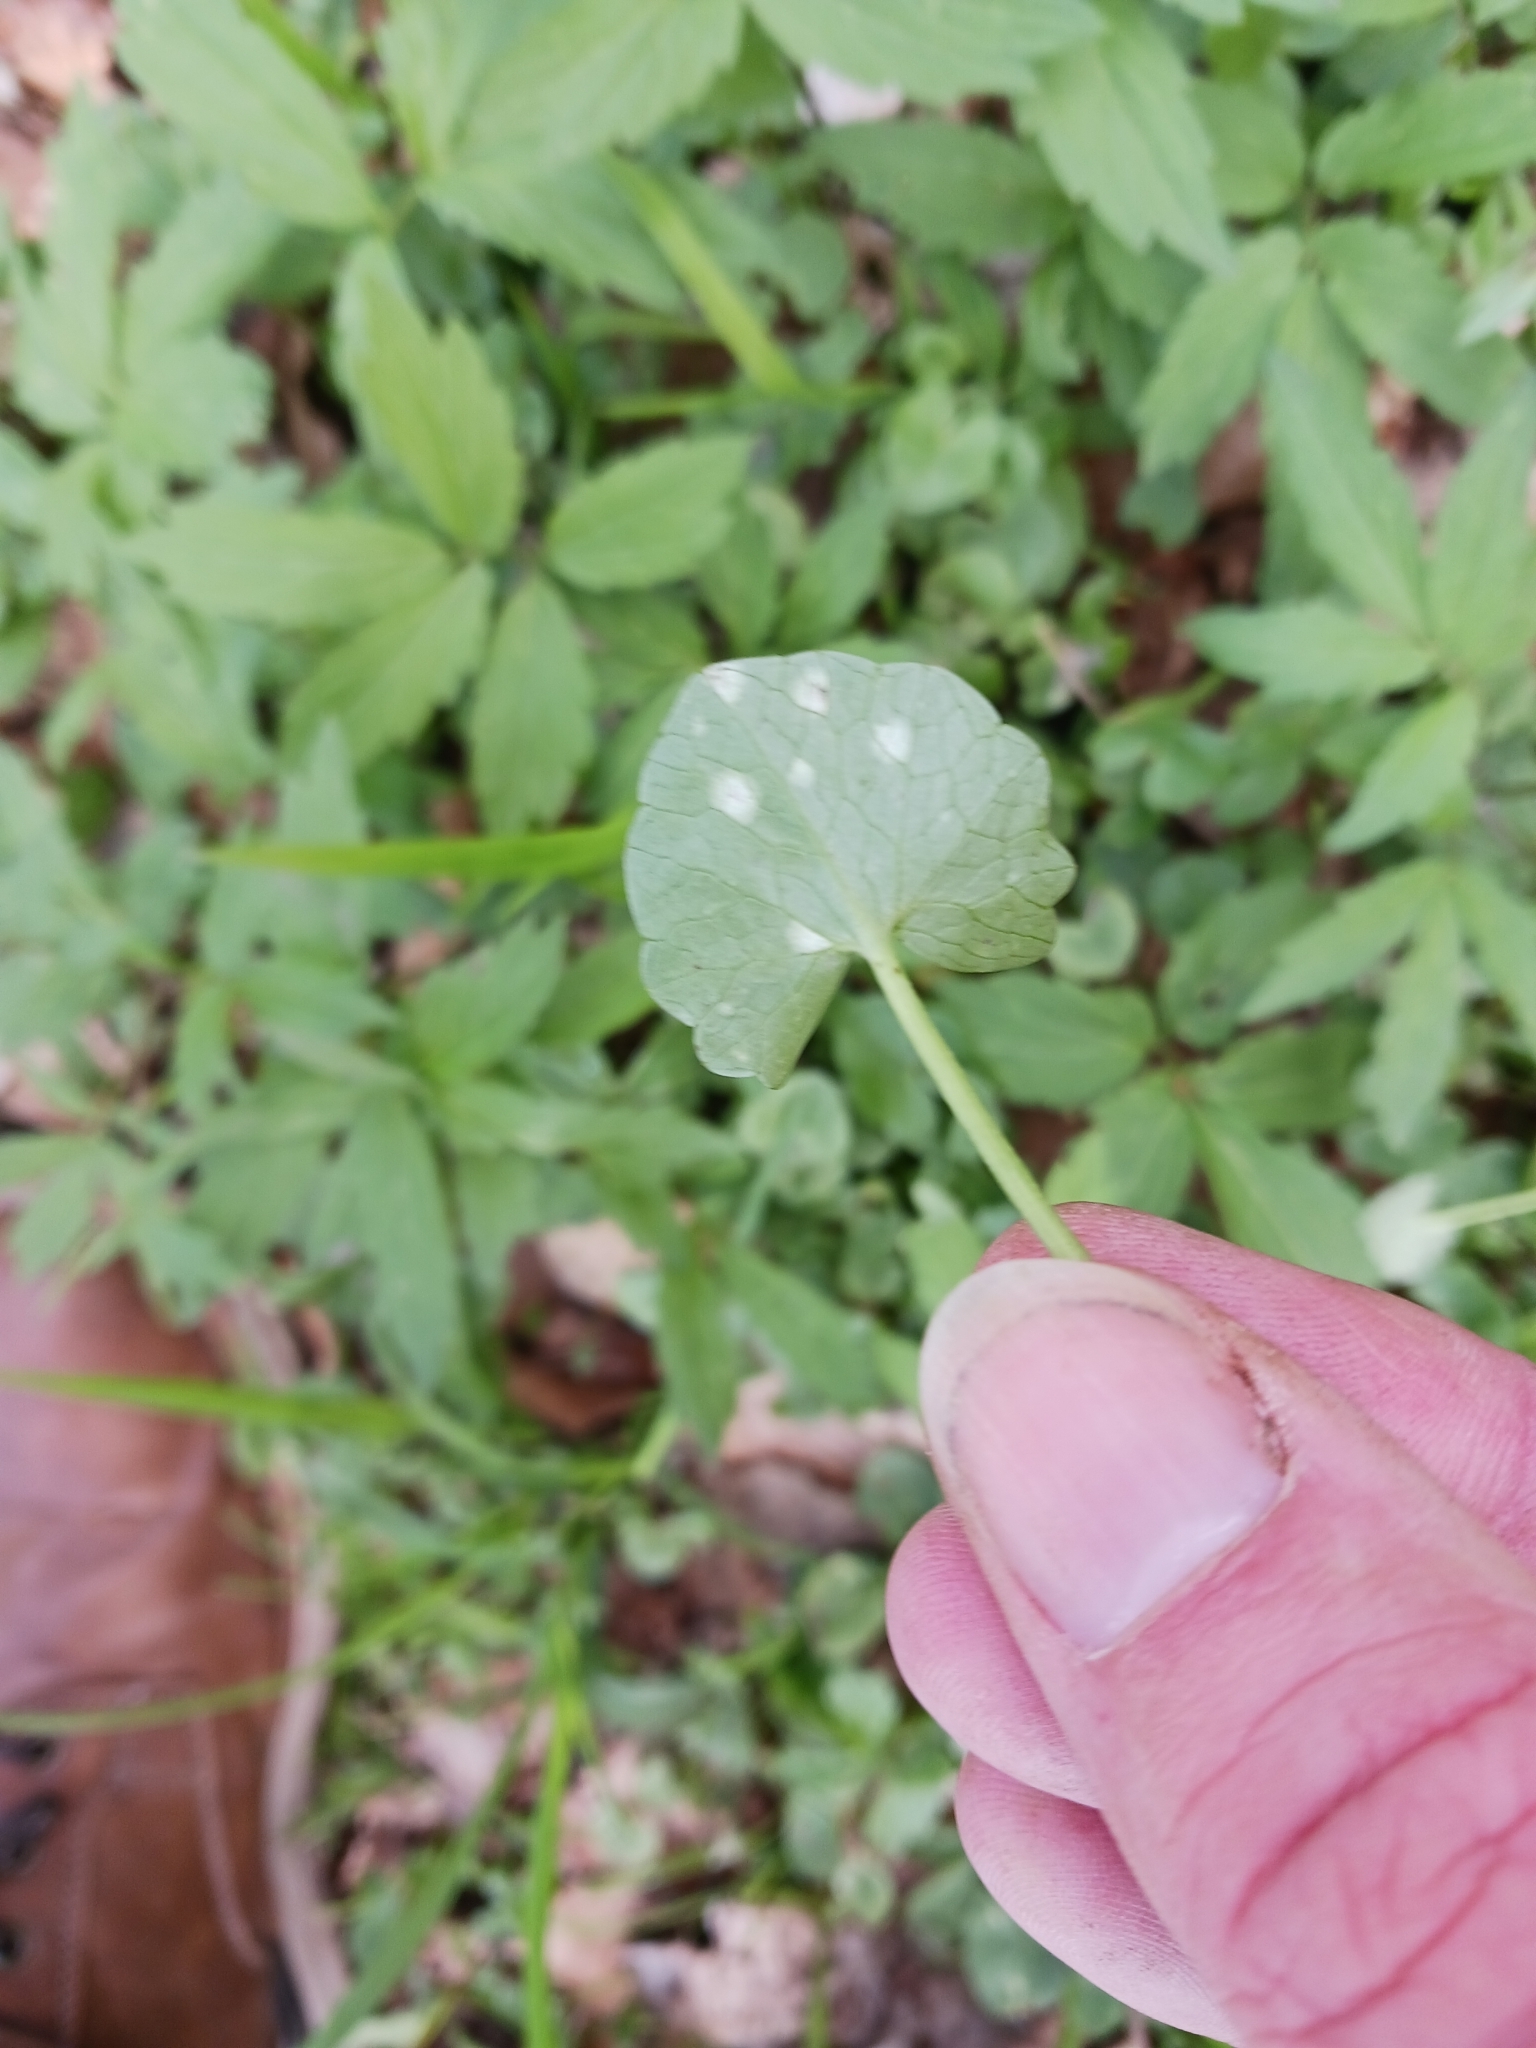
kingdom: Fungi
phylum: Basidiomycota
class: Exobasidiomycetes
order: Entylomatales
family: Entylomataceae
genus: Entyloma
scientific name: Entyloma ficariae
